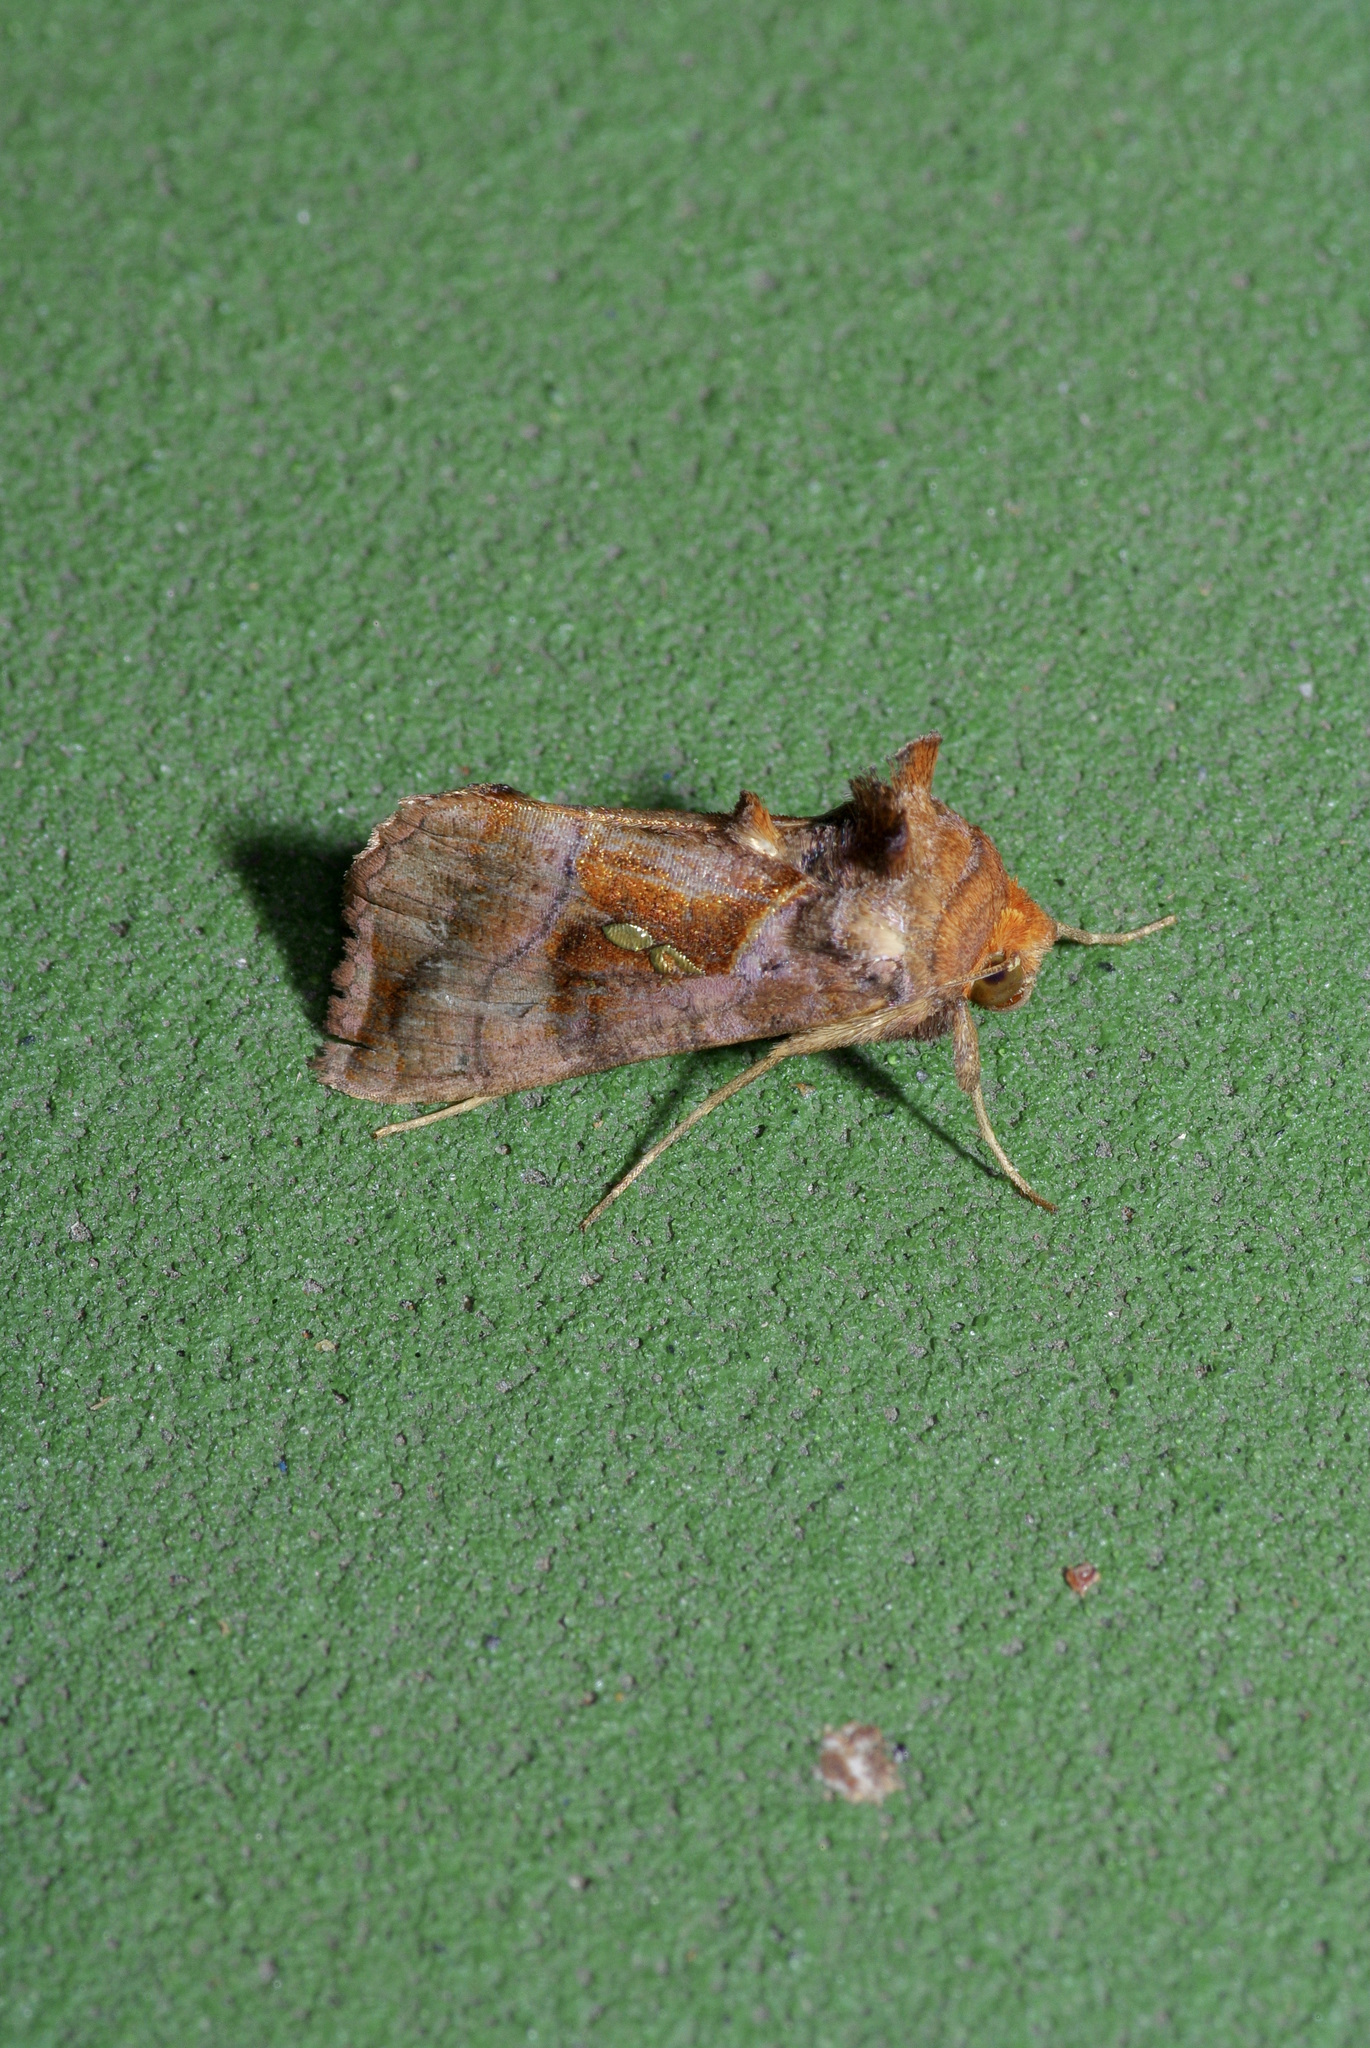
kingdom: Animalia
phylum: Arthropoda
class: Insecta
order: Lepidoptera
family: Noctuidae
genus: Enigmogramma
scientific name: Enigmogramma basigera
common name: Pink-washed looper moth
